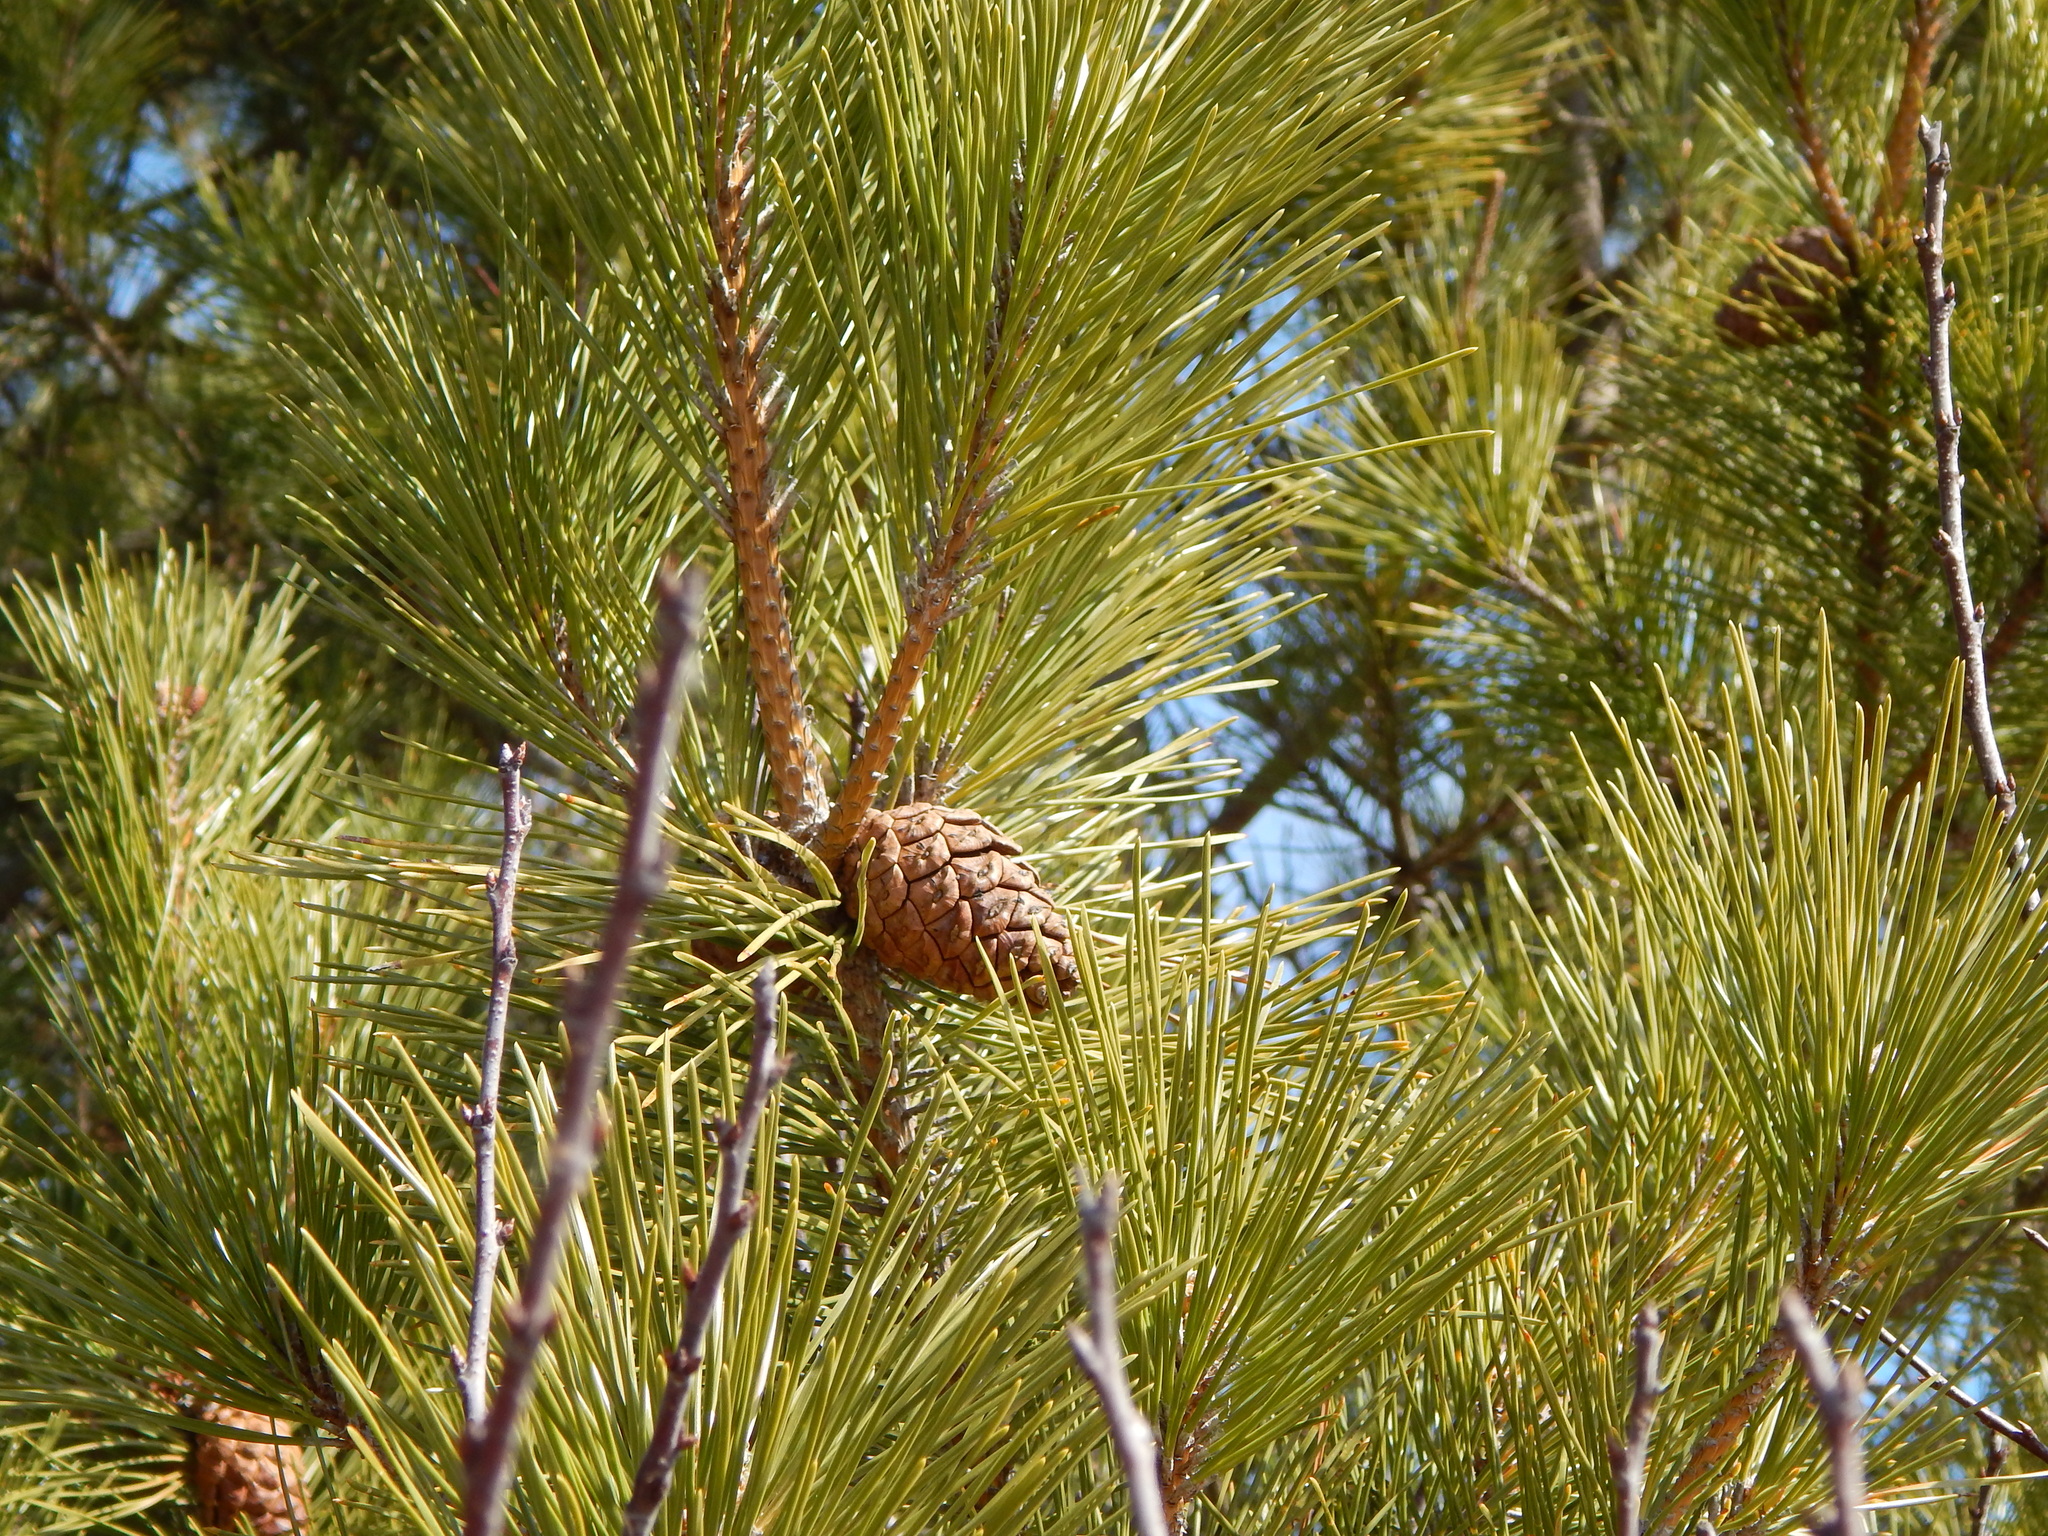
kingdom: Plantae
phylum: Tracheophyta
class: Pinopsida
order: Pinales
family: Pinaceae
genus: Pinus
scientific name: Pinus rigida
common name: Pitch pine
